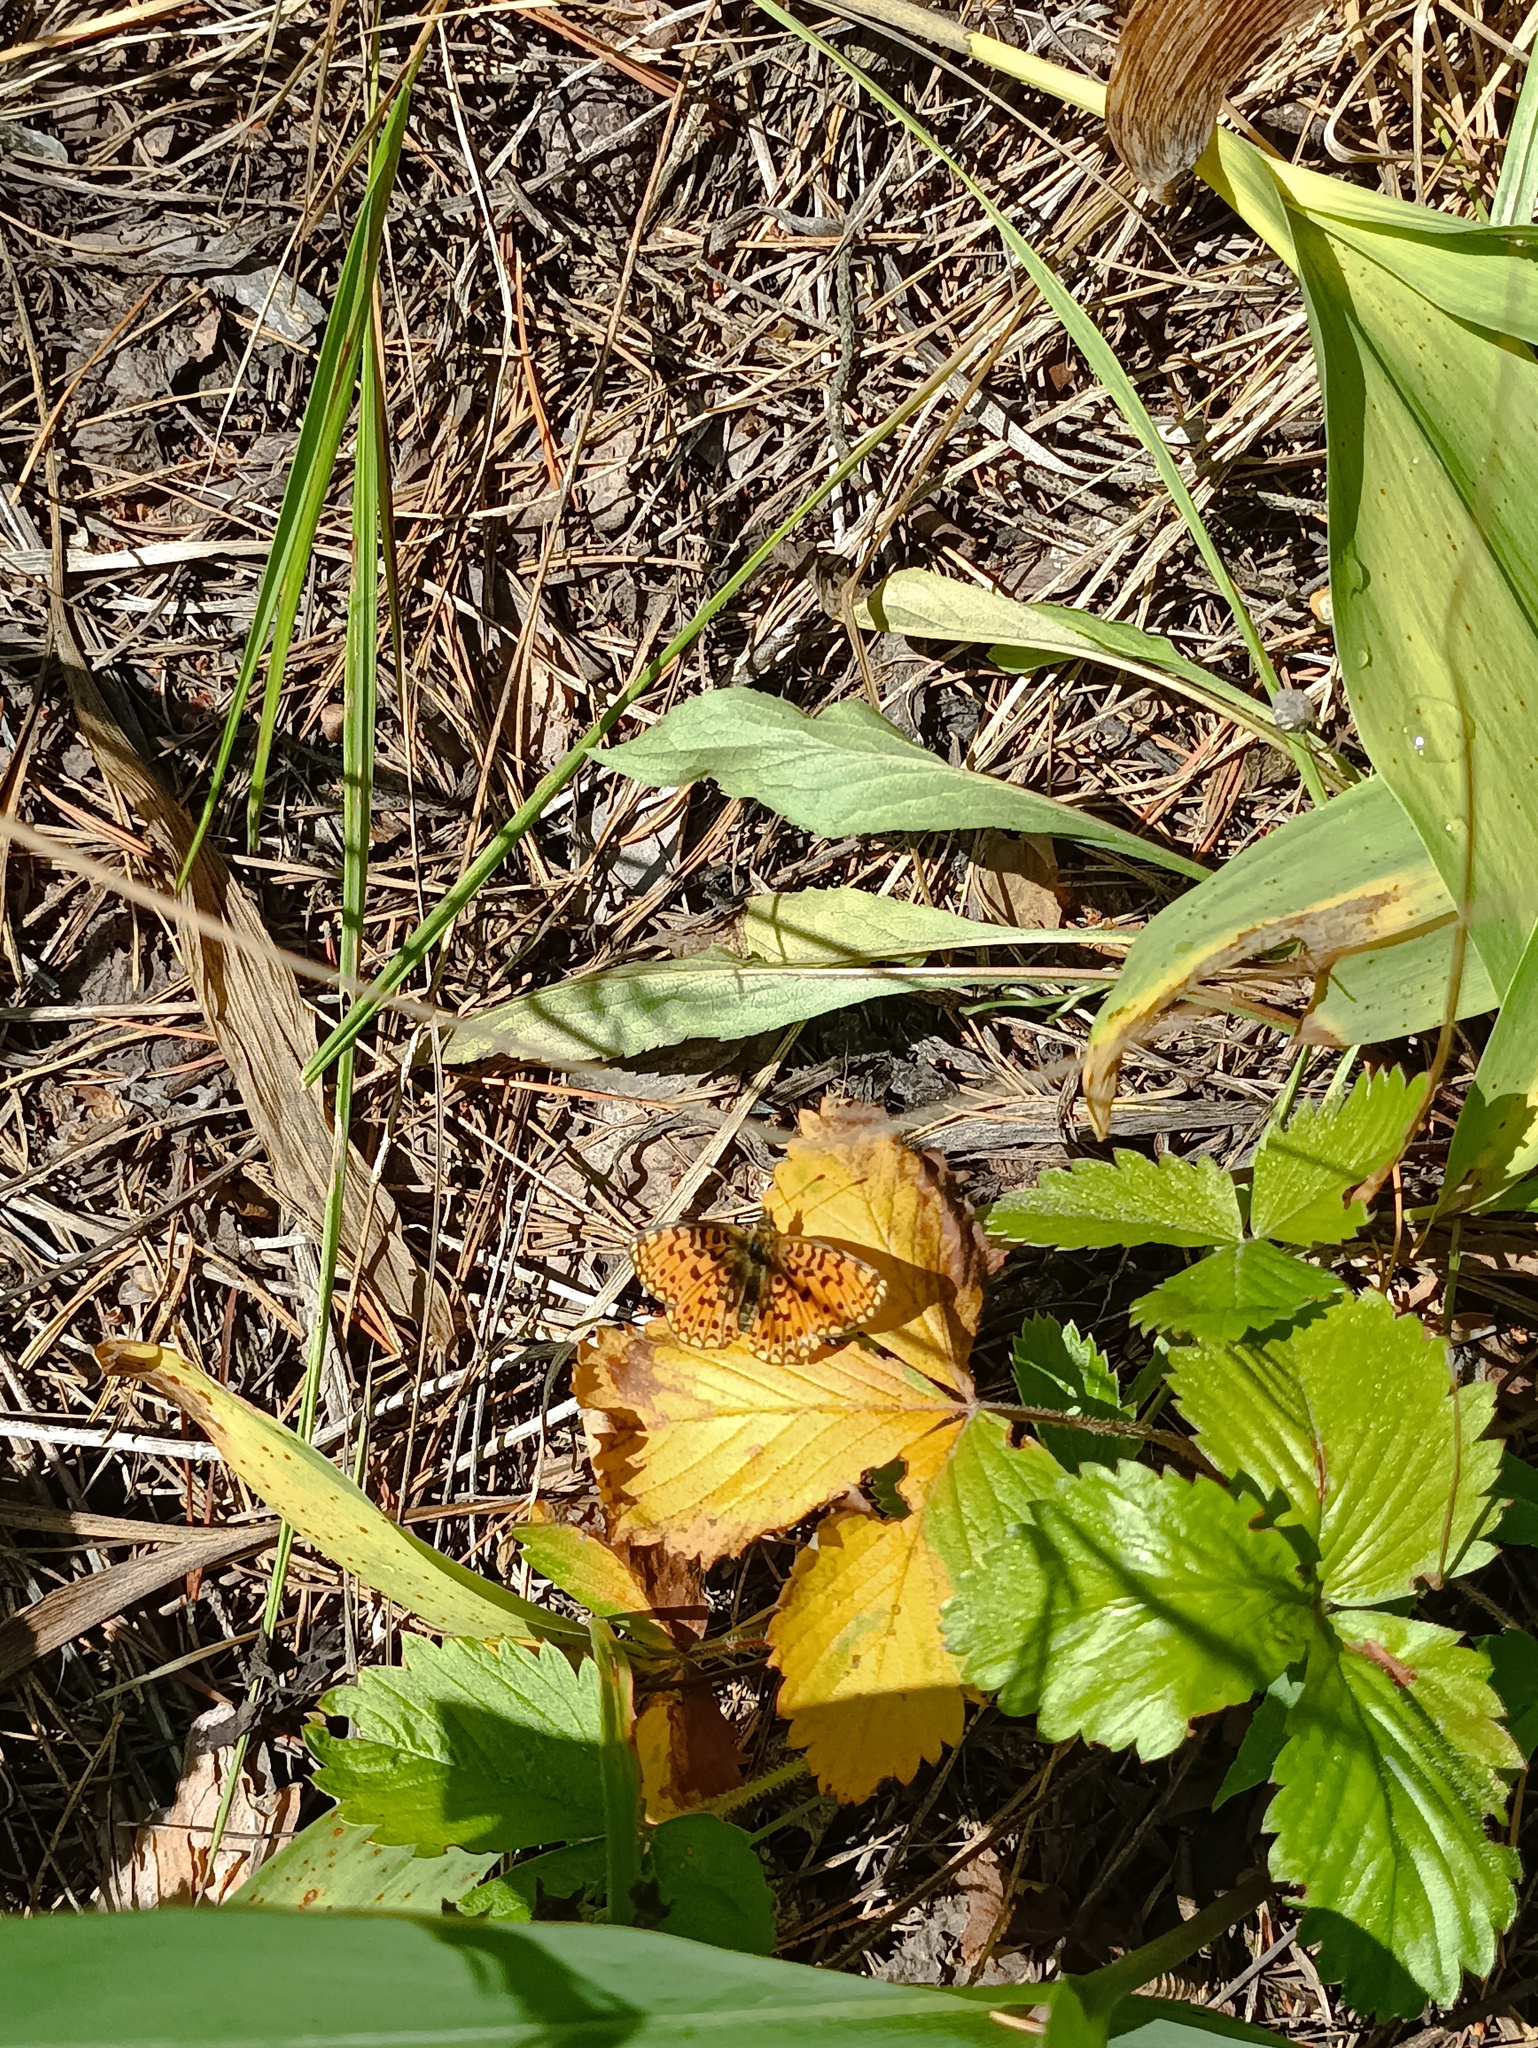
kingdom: Animalia
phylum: Arthropoda
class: Insecta
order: Lepidoptera
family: Nymphalidae
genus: Boloria
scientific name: Boloria selene
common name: Small pearl-bordered fritillary
